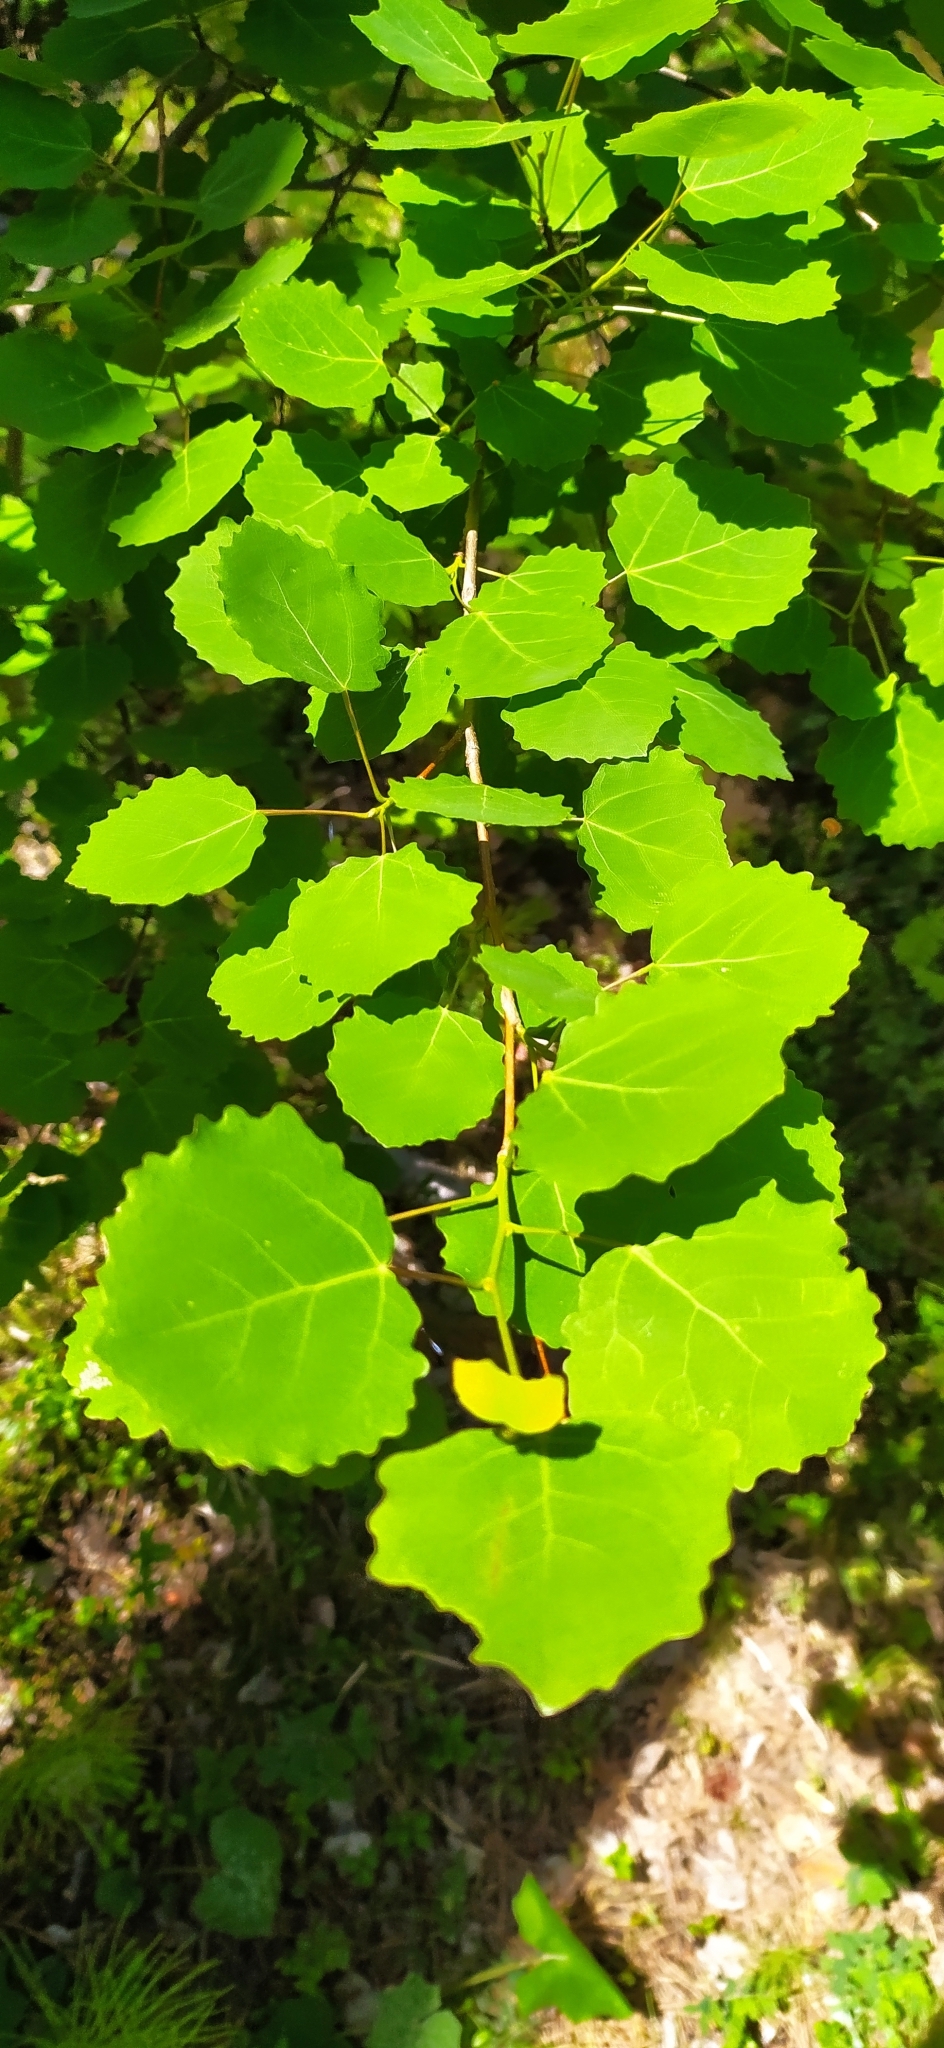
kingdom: Plantae
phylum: Tracheophyta
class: Magnoliopsida
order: Malpighiales
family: Salicaceae
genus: Populus
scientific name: Populus tremula
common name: European aspen
